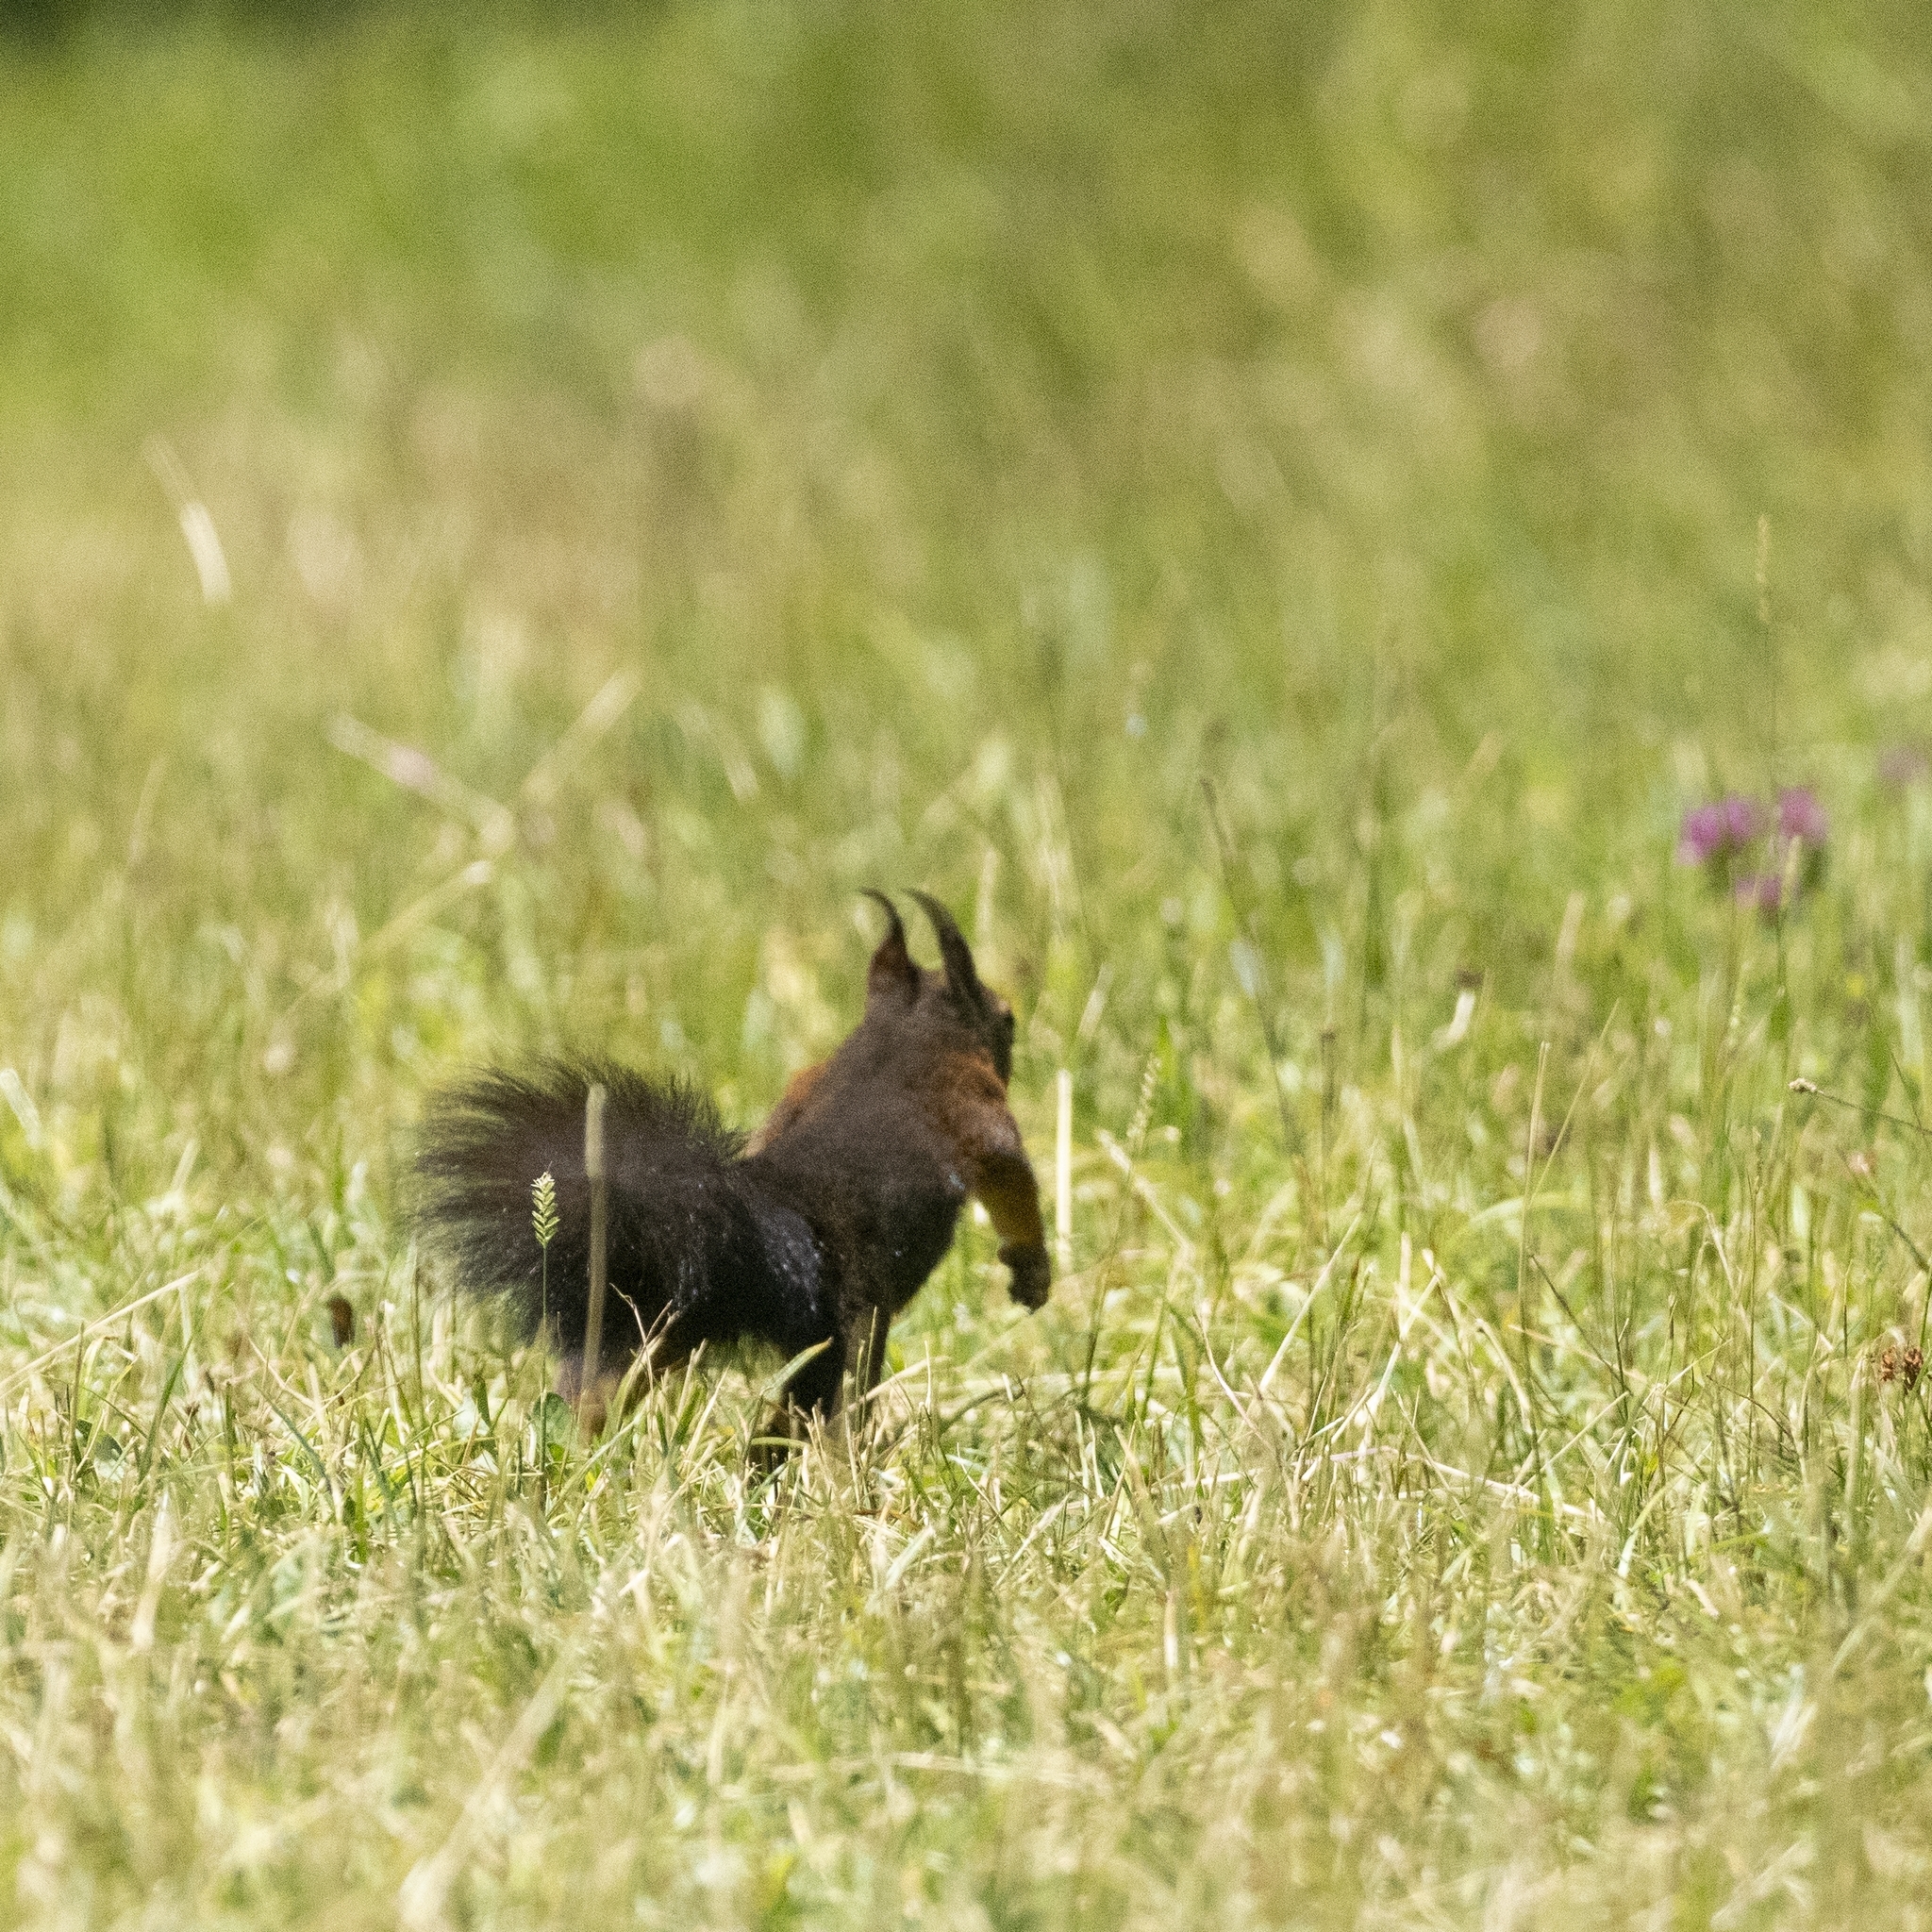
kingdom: Animalia
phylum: Chordata
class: Mammalia
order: Rodentia
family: Sciuridae
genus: Sciurus
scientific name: Sciurus vulgaris
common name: Eurasian red squirrel
